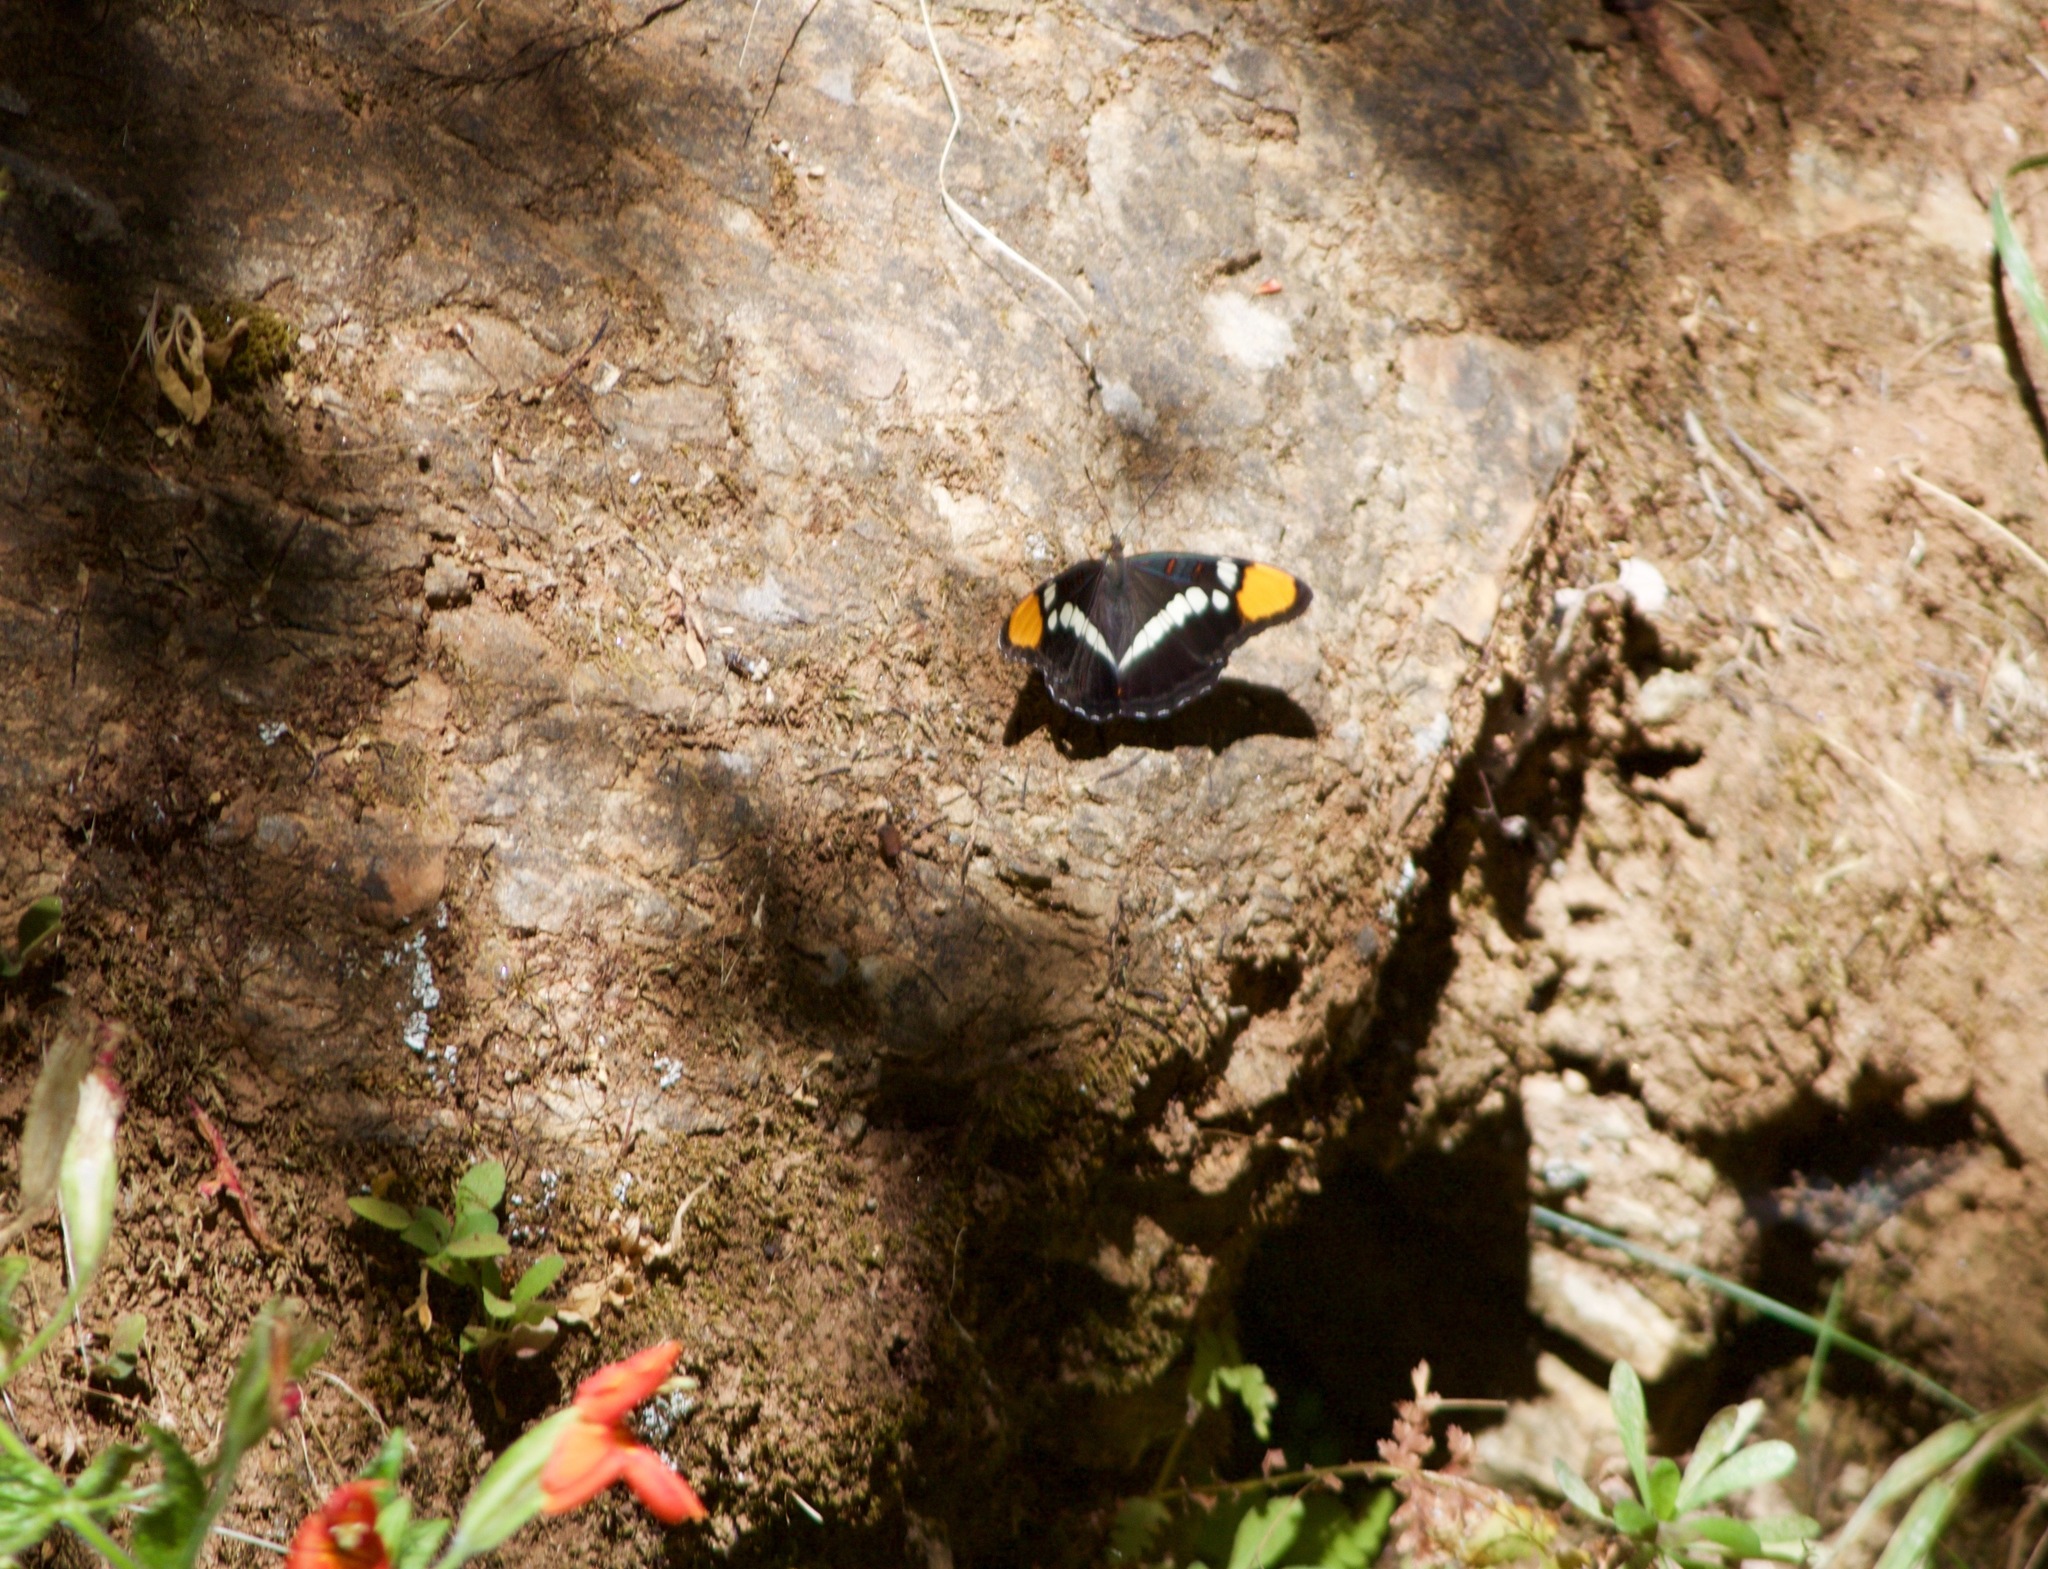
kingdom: Animalia
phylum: Arthropoda
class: Insecta
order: Lepidoptera
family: Nymphalidae
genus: Limenitis
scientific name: Limenitis bredowii
